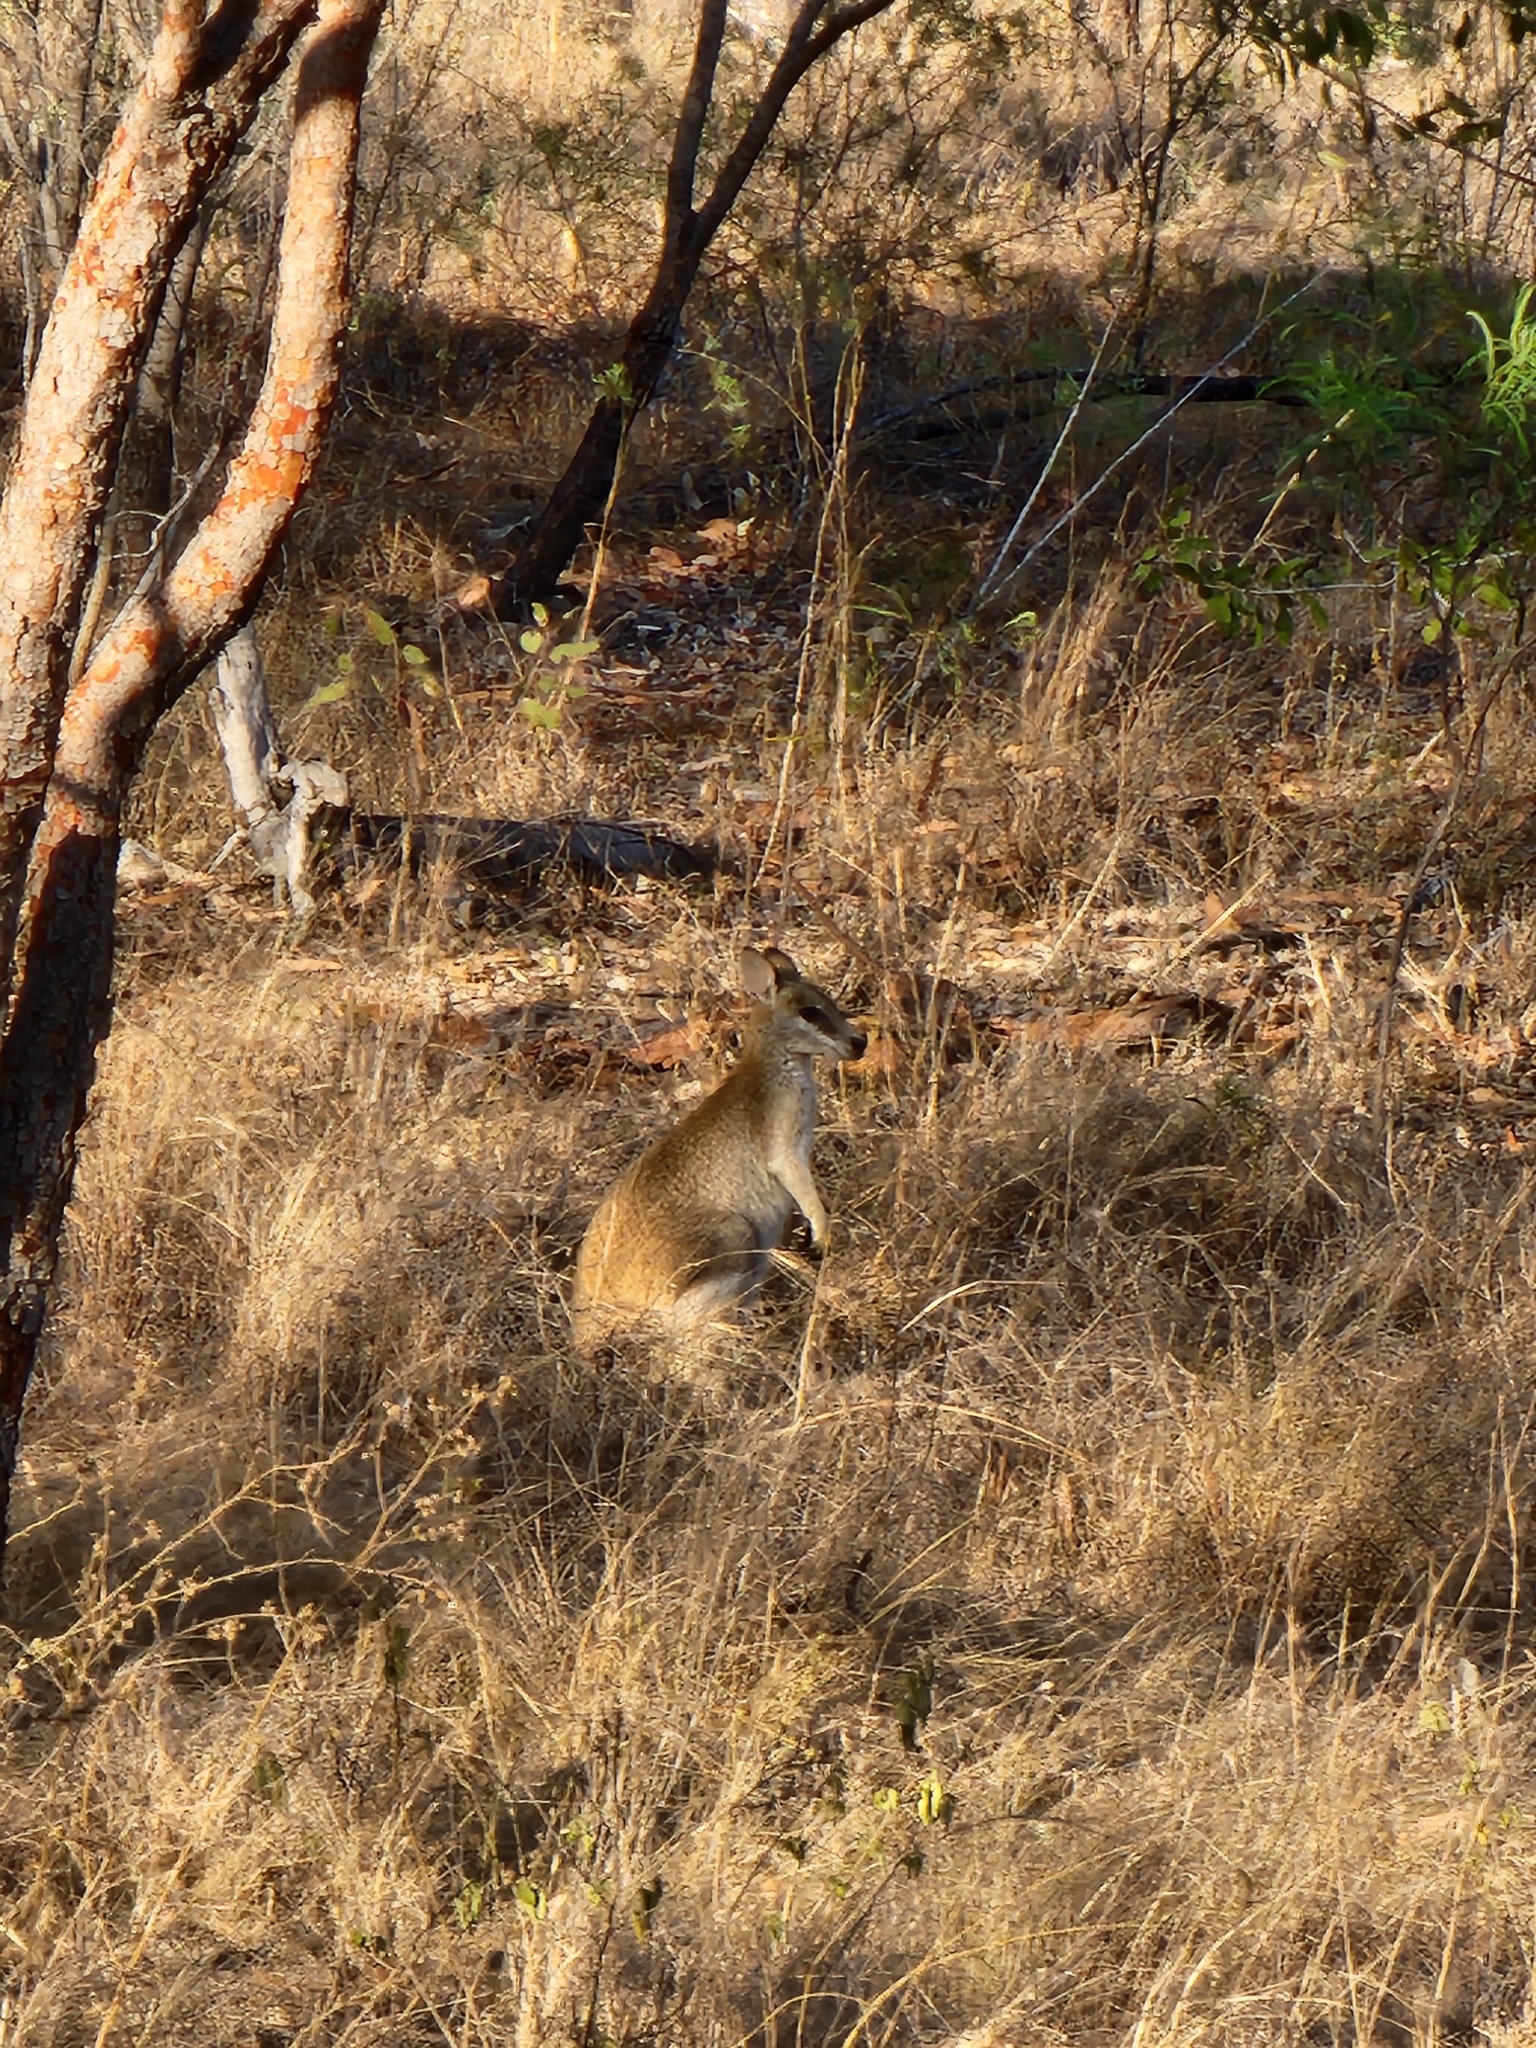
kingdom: Animalia
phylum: Chordata
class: Mammalia
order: Diprotodontia
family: Macropodidae
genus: Macropus
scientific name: Macropus agilis
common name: Agile wallaby
